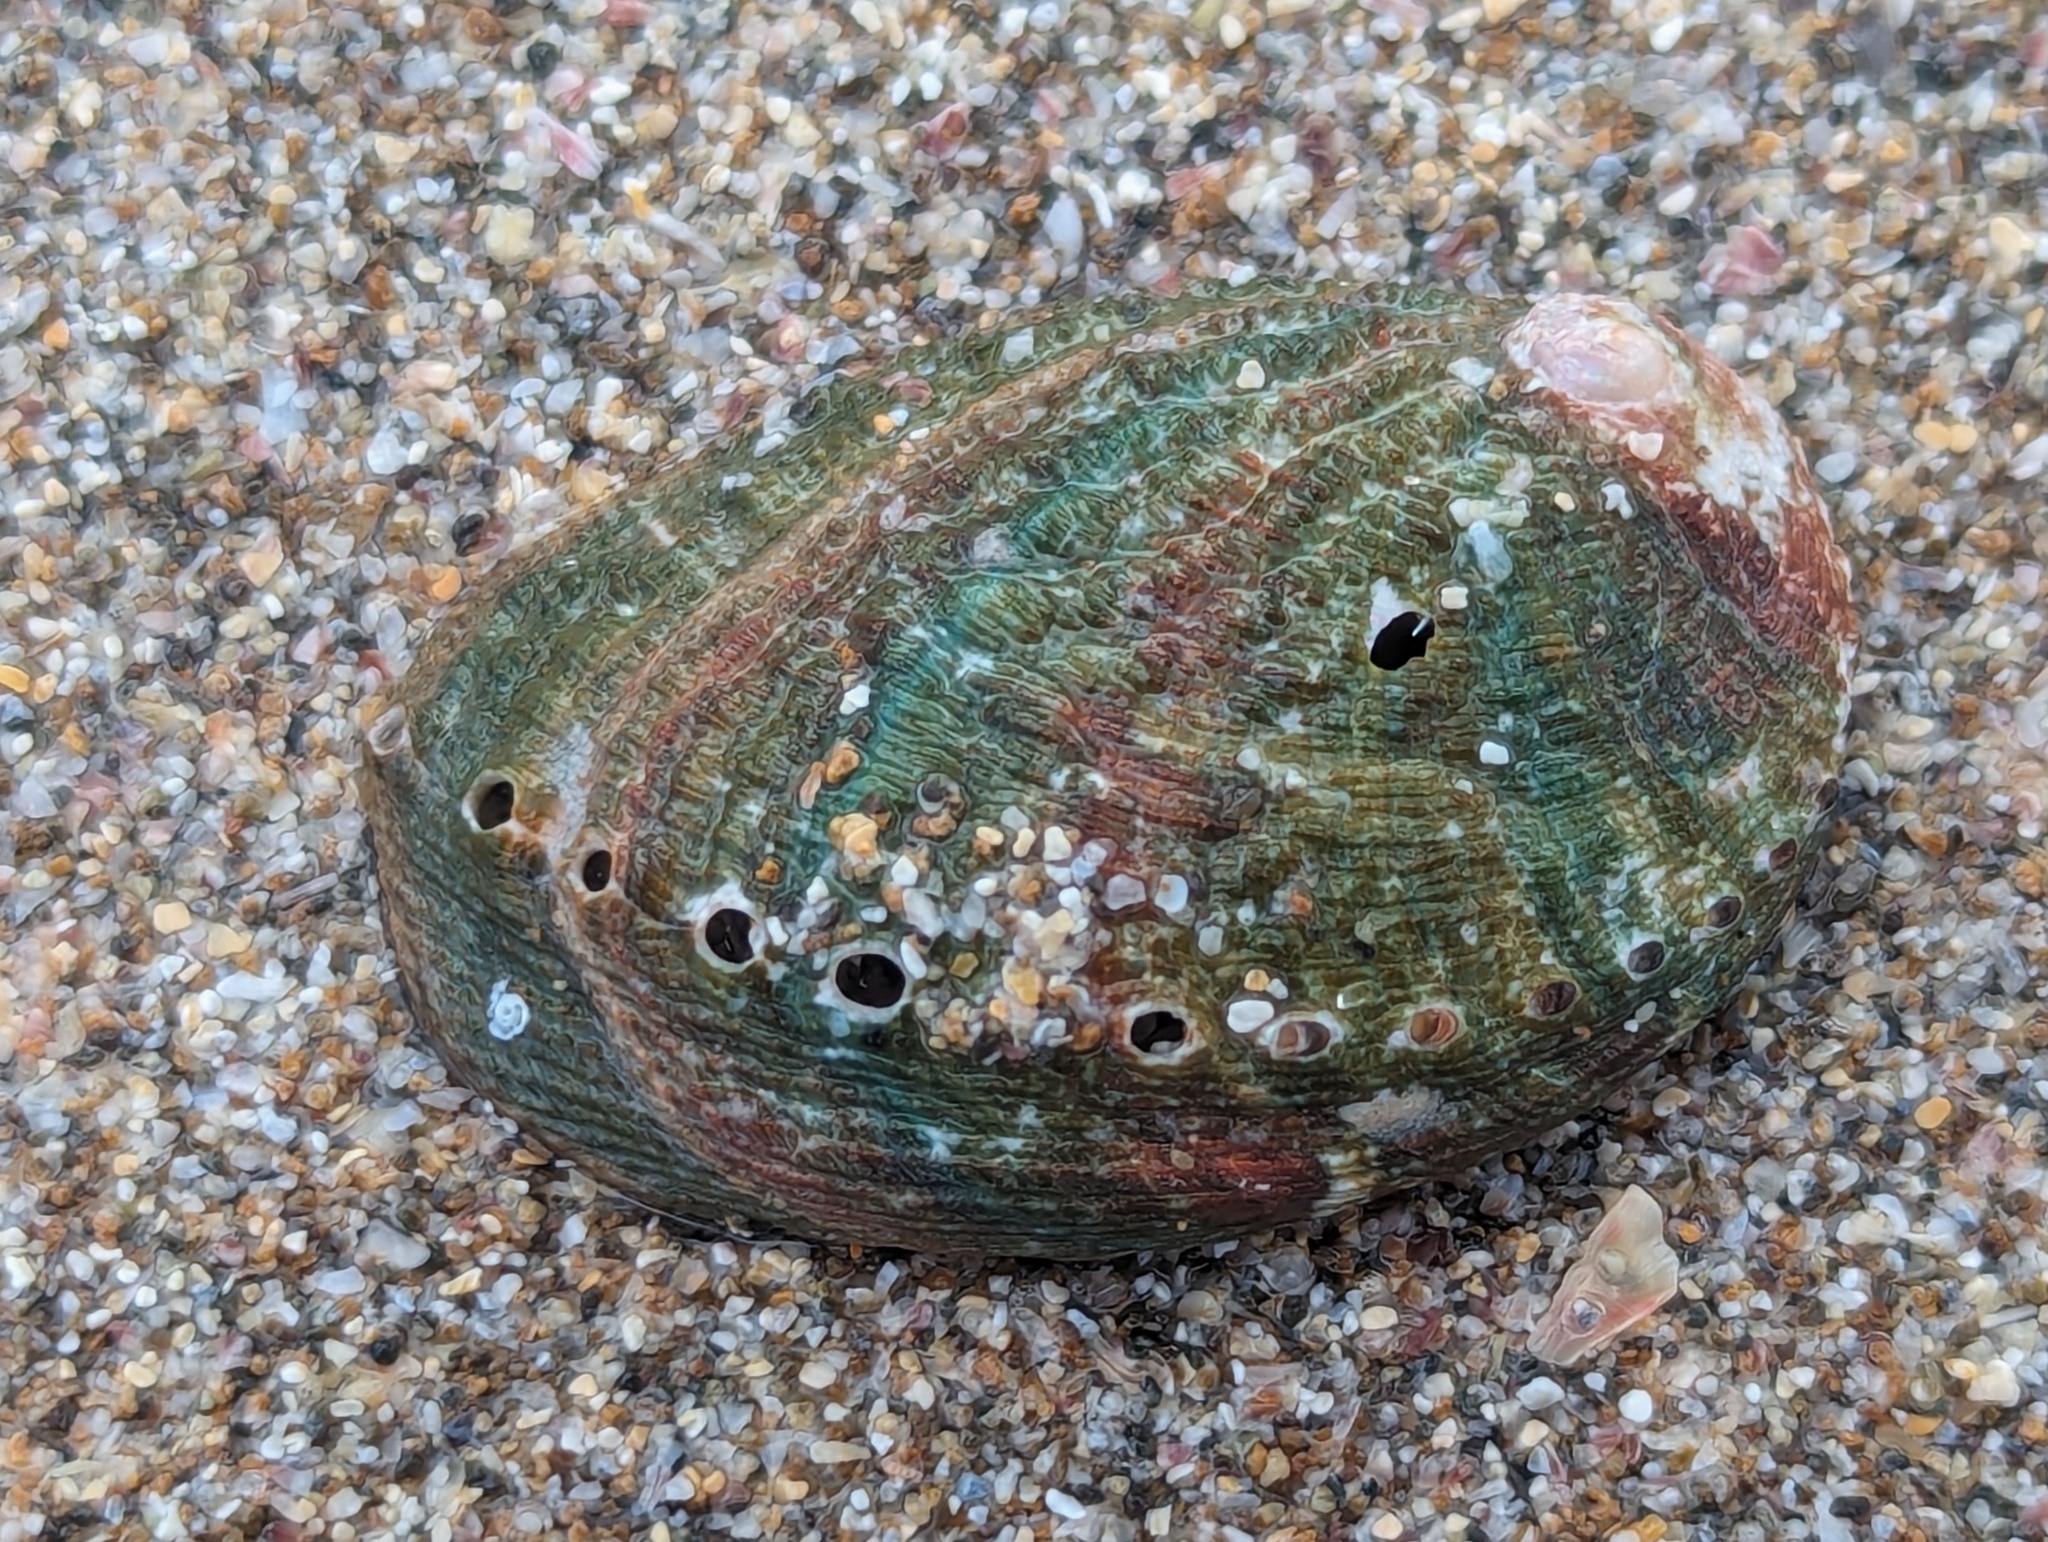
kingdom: Animalia
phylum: Mollusca
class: Gastropoda
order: Lepetellida
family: Haliotidae
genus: Haliotis
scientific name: Haliotis virginea
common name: Whitefoot paua
